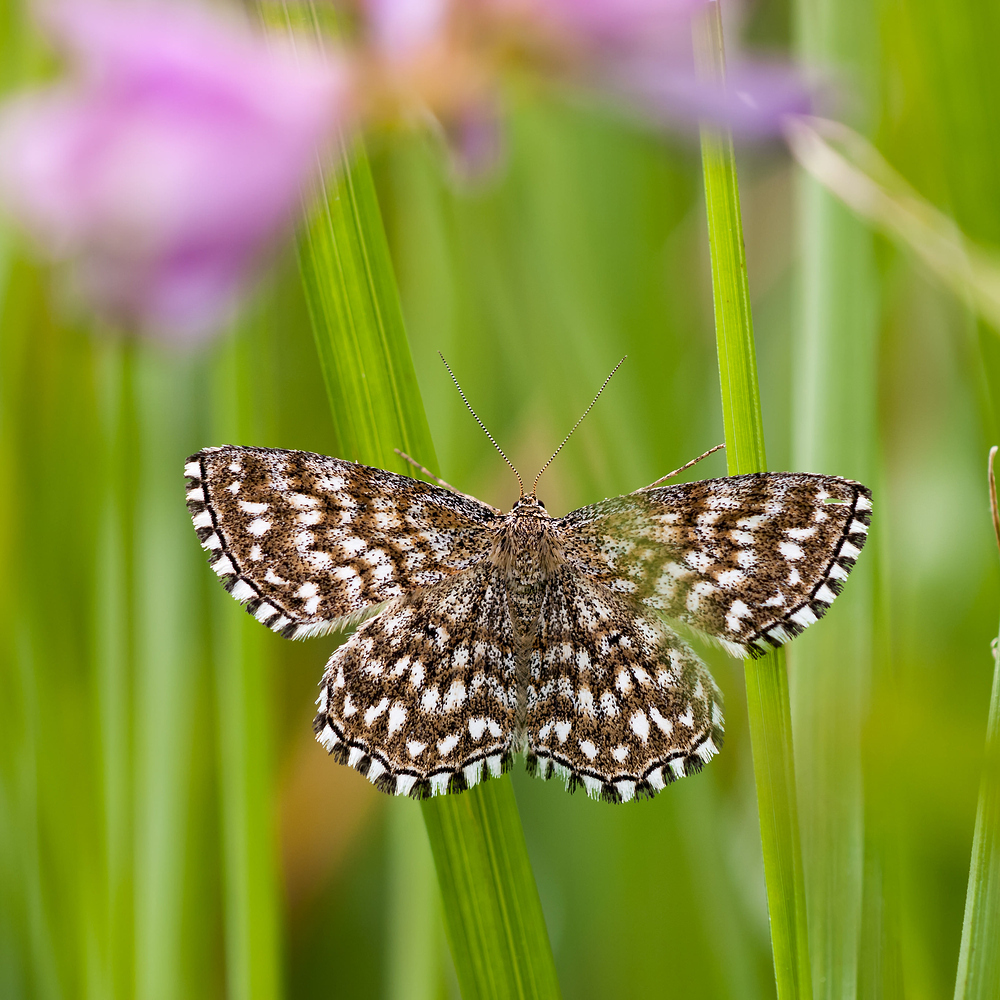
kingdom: Animalia
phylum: Arthropoda
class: Insecta
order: Lepidoptera
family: Geometridae
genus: Scopula
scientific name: Scopula tessellaria
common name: Dusky-brown wave
